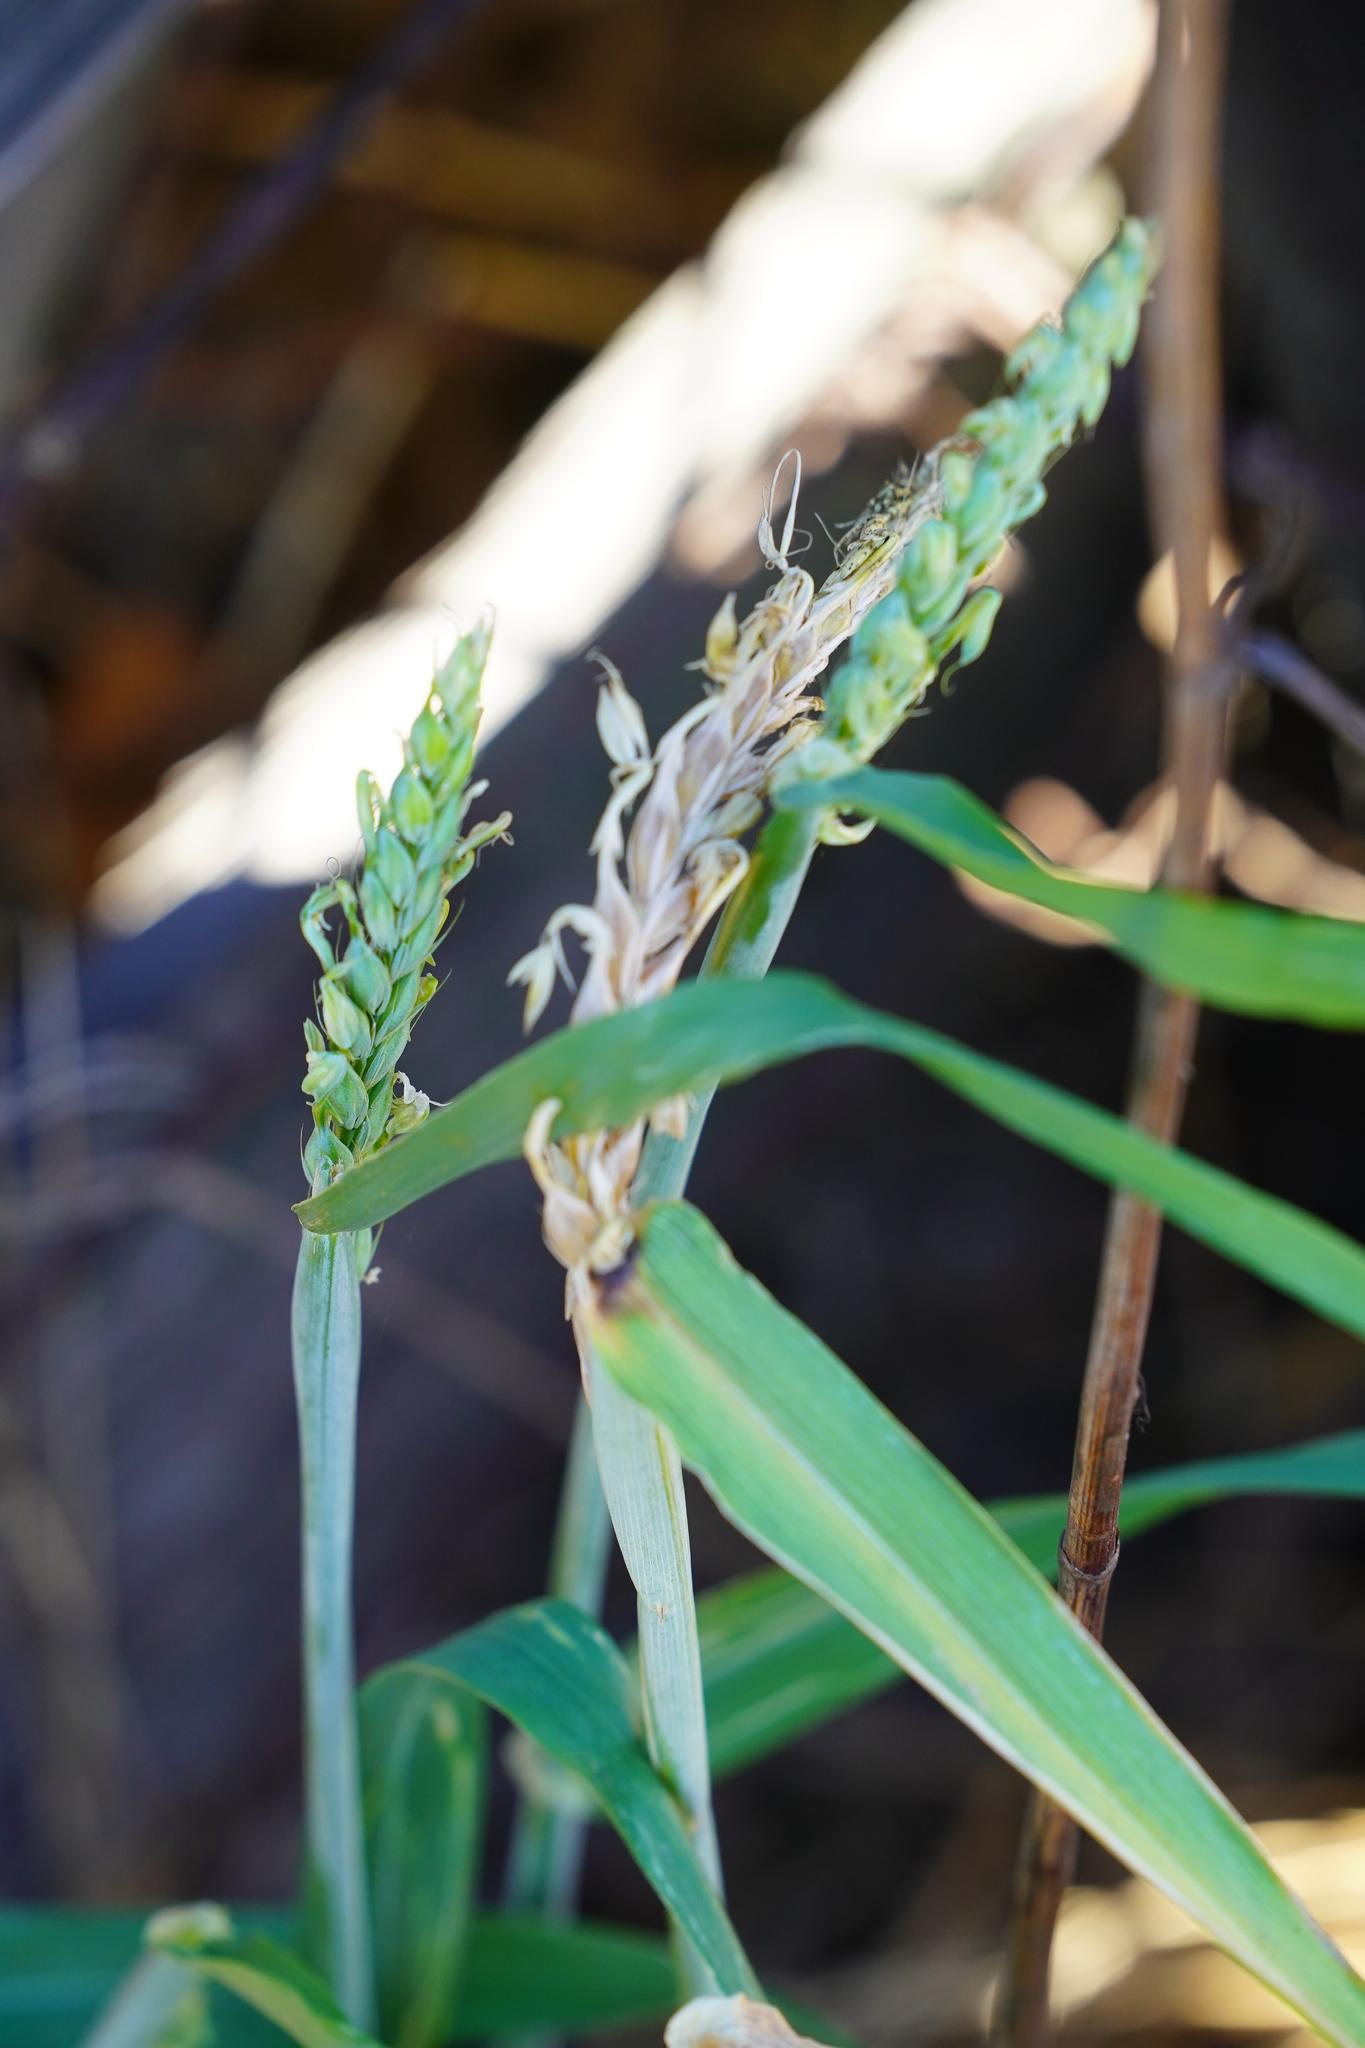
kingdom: Plantae
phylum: Tracheophyta
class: Liliopsida
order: Poales
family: Poaceae
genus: Triticum
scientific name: Triticum aestivum
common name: Common wheat
